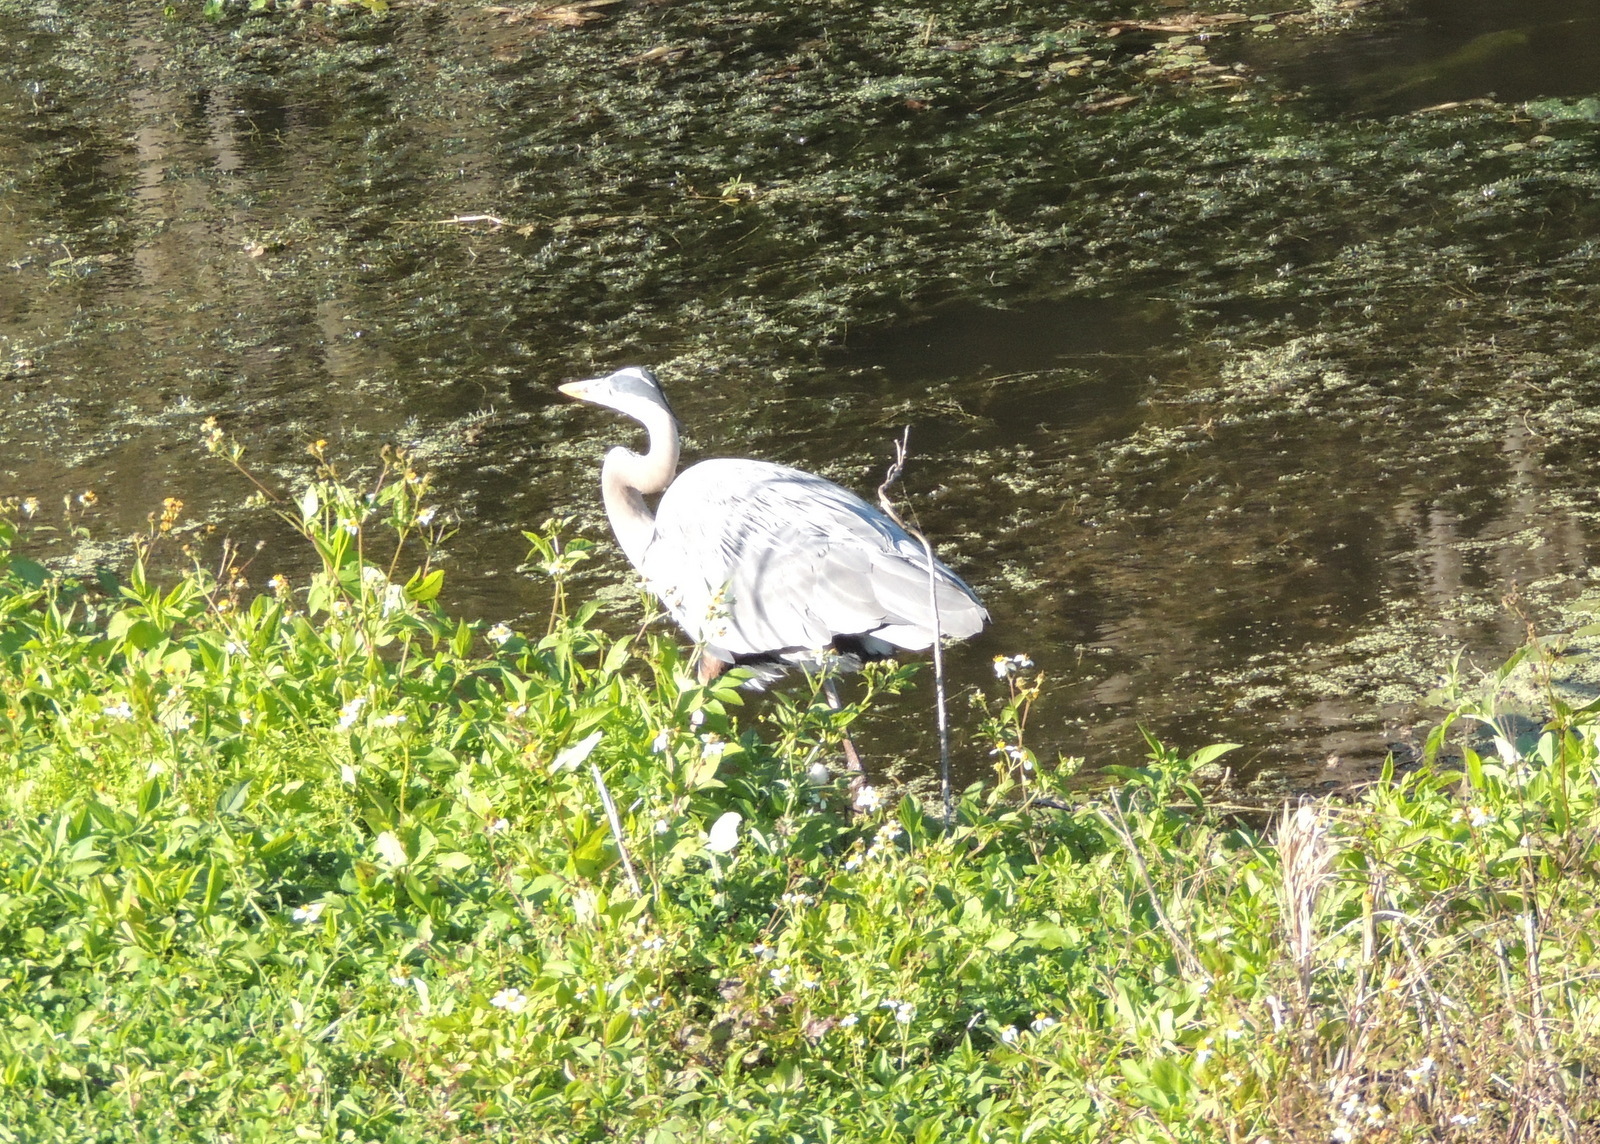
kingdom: Animalia
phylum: Chordata
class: Aves
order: Pelecaniformes
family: Ardeidae
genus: Ardea
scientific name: Ardea herodias
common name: Great blue heron
